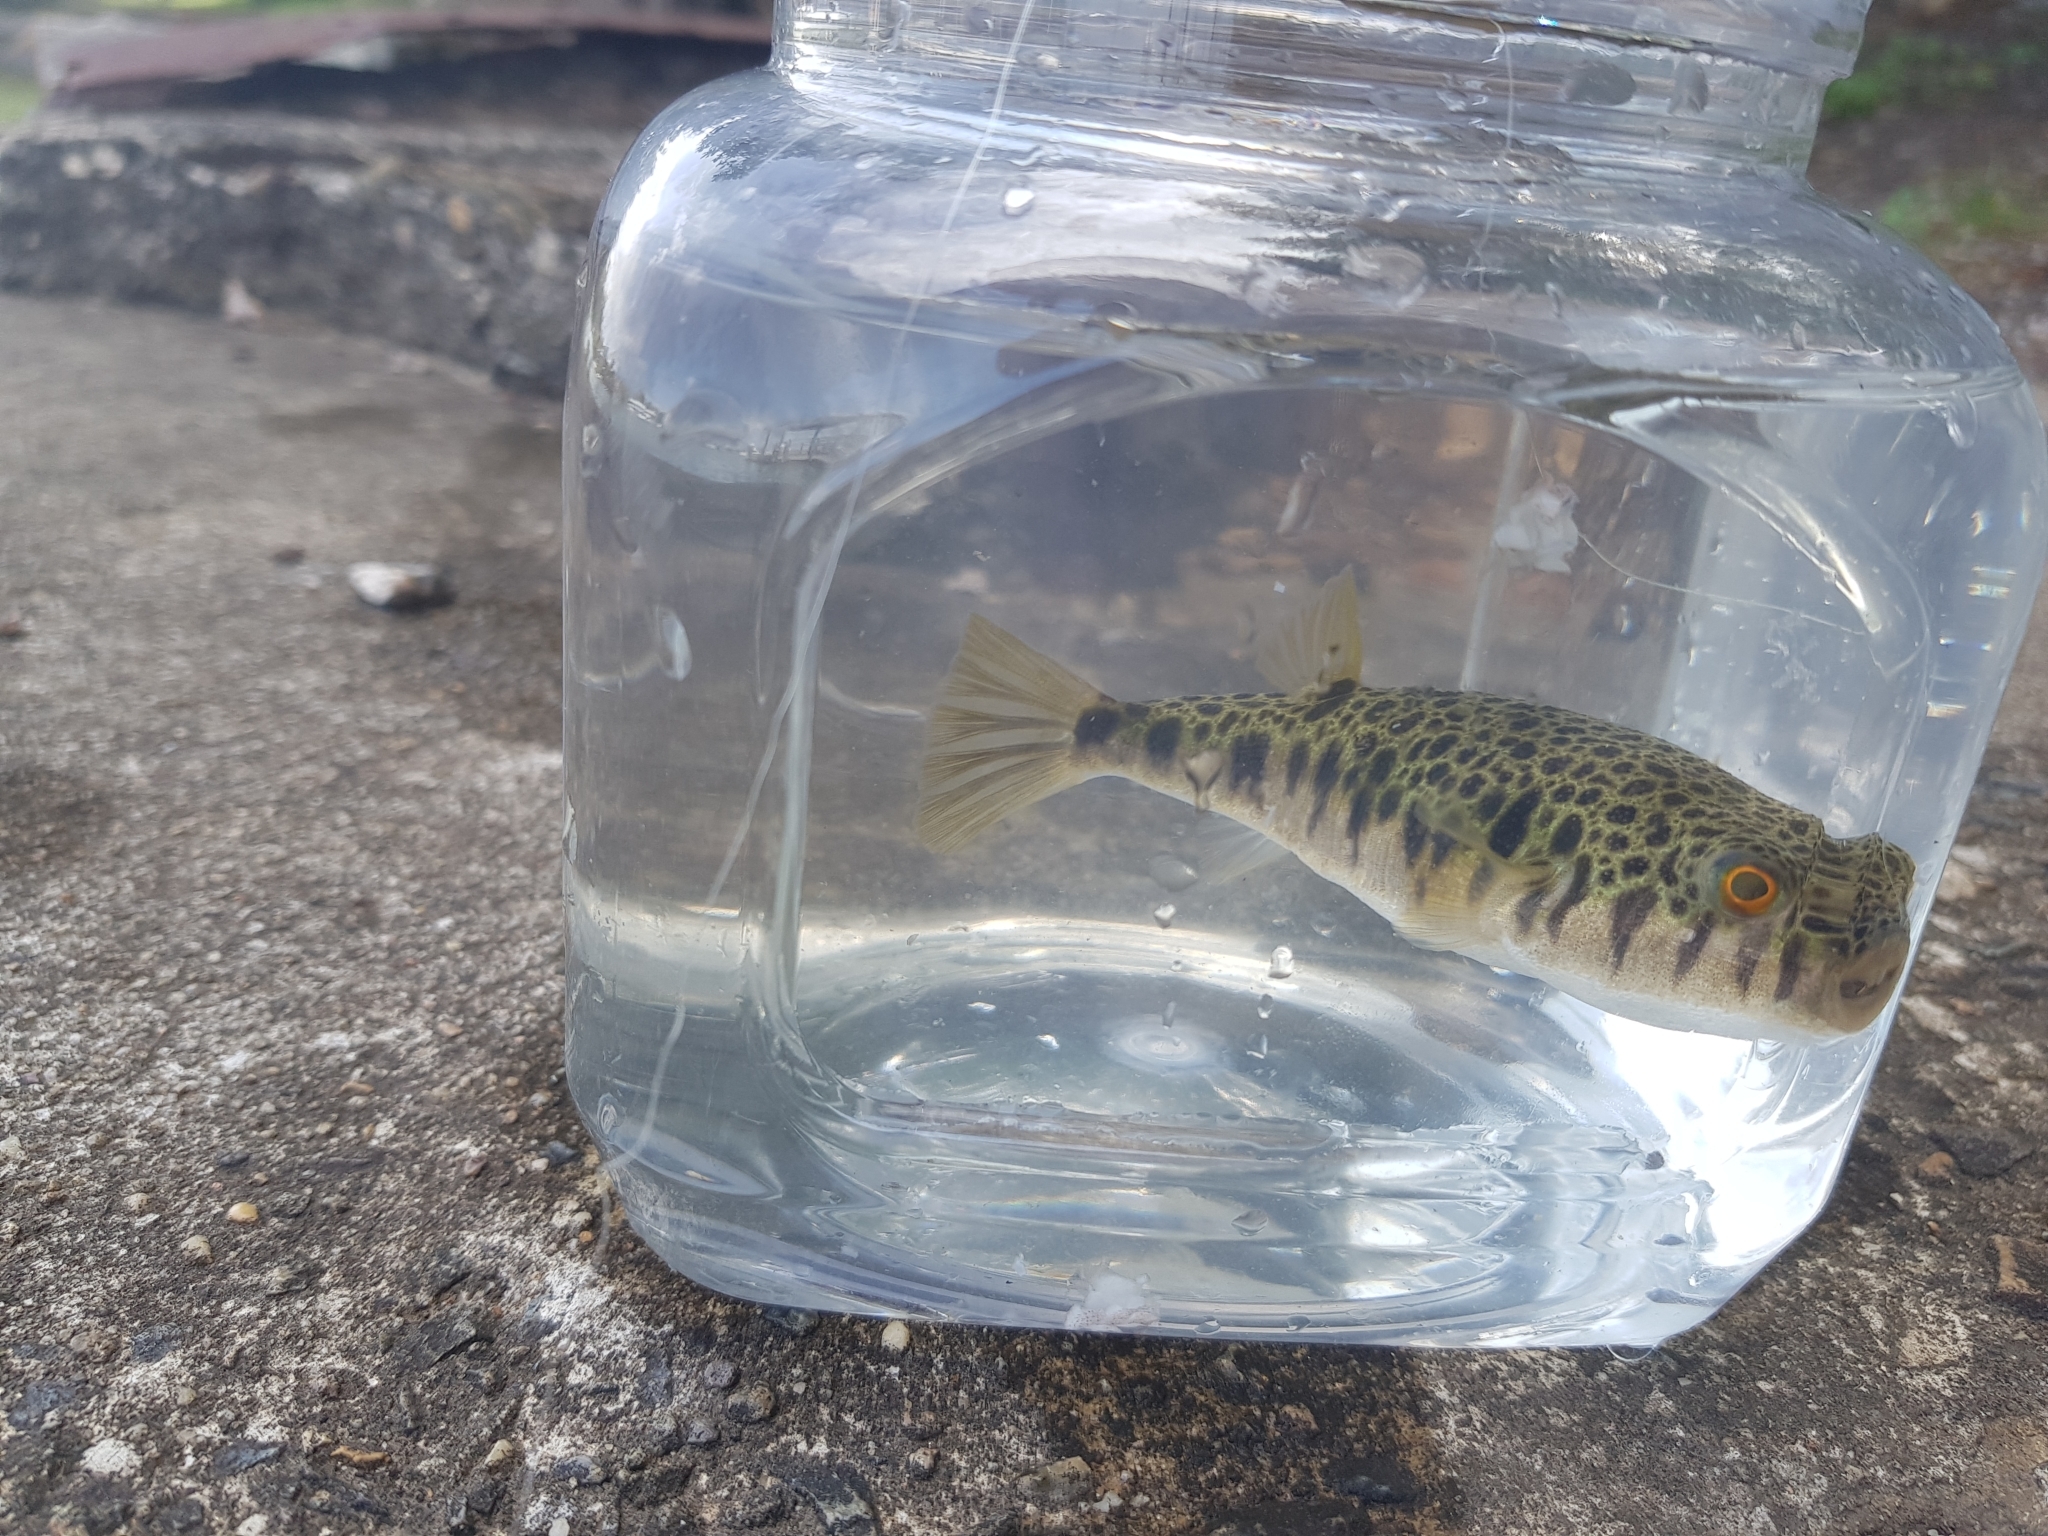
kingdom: Animalia
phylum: Chordata
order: Tetraodontiformes
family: Tetraodontidae
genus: Tetractenos
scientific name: Tetractenos hamiltoni
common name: Common toadfish
